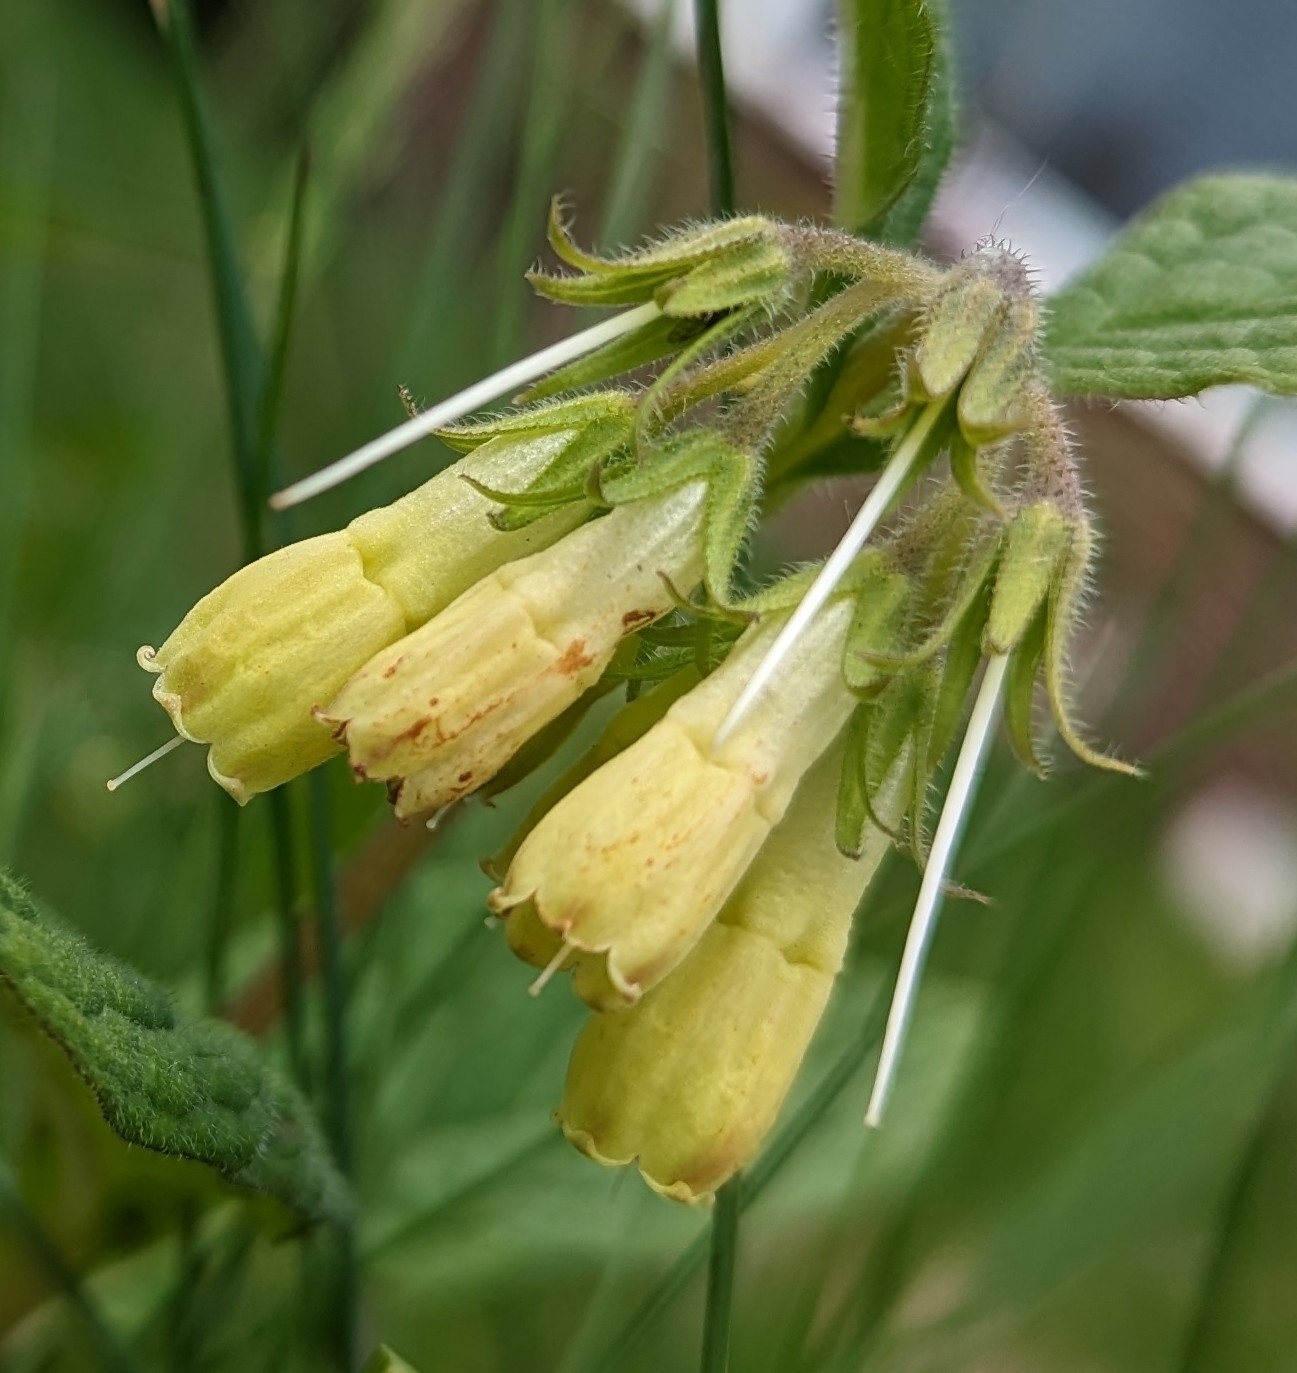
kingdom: Plantae
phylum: Tracheophyta
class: Magnoliopsida
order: Boraginales
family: Boraginaceae
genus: Symphytum
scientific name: Symphytum tuberosum
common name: Tuberous comfrey
